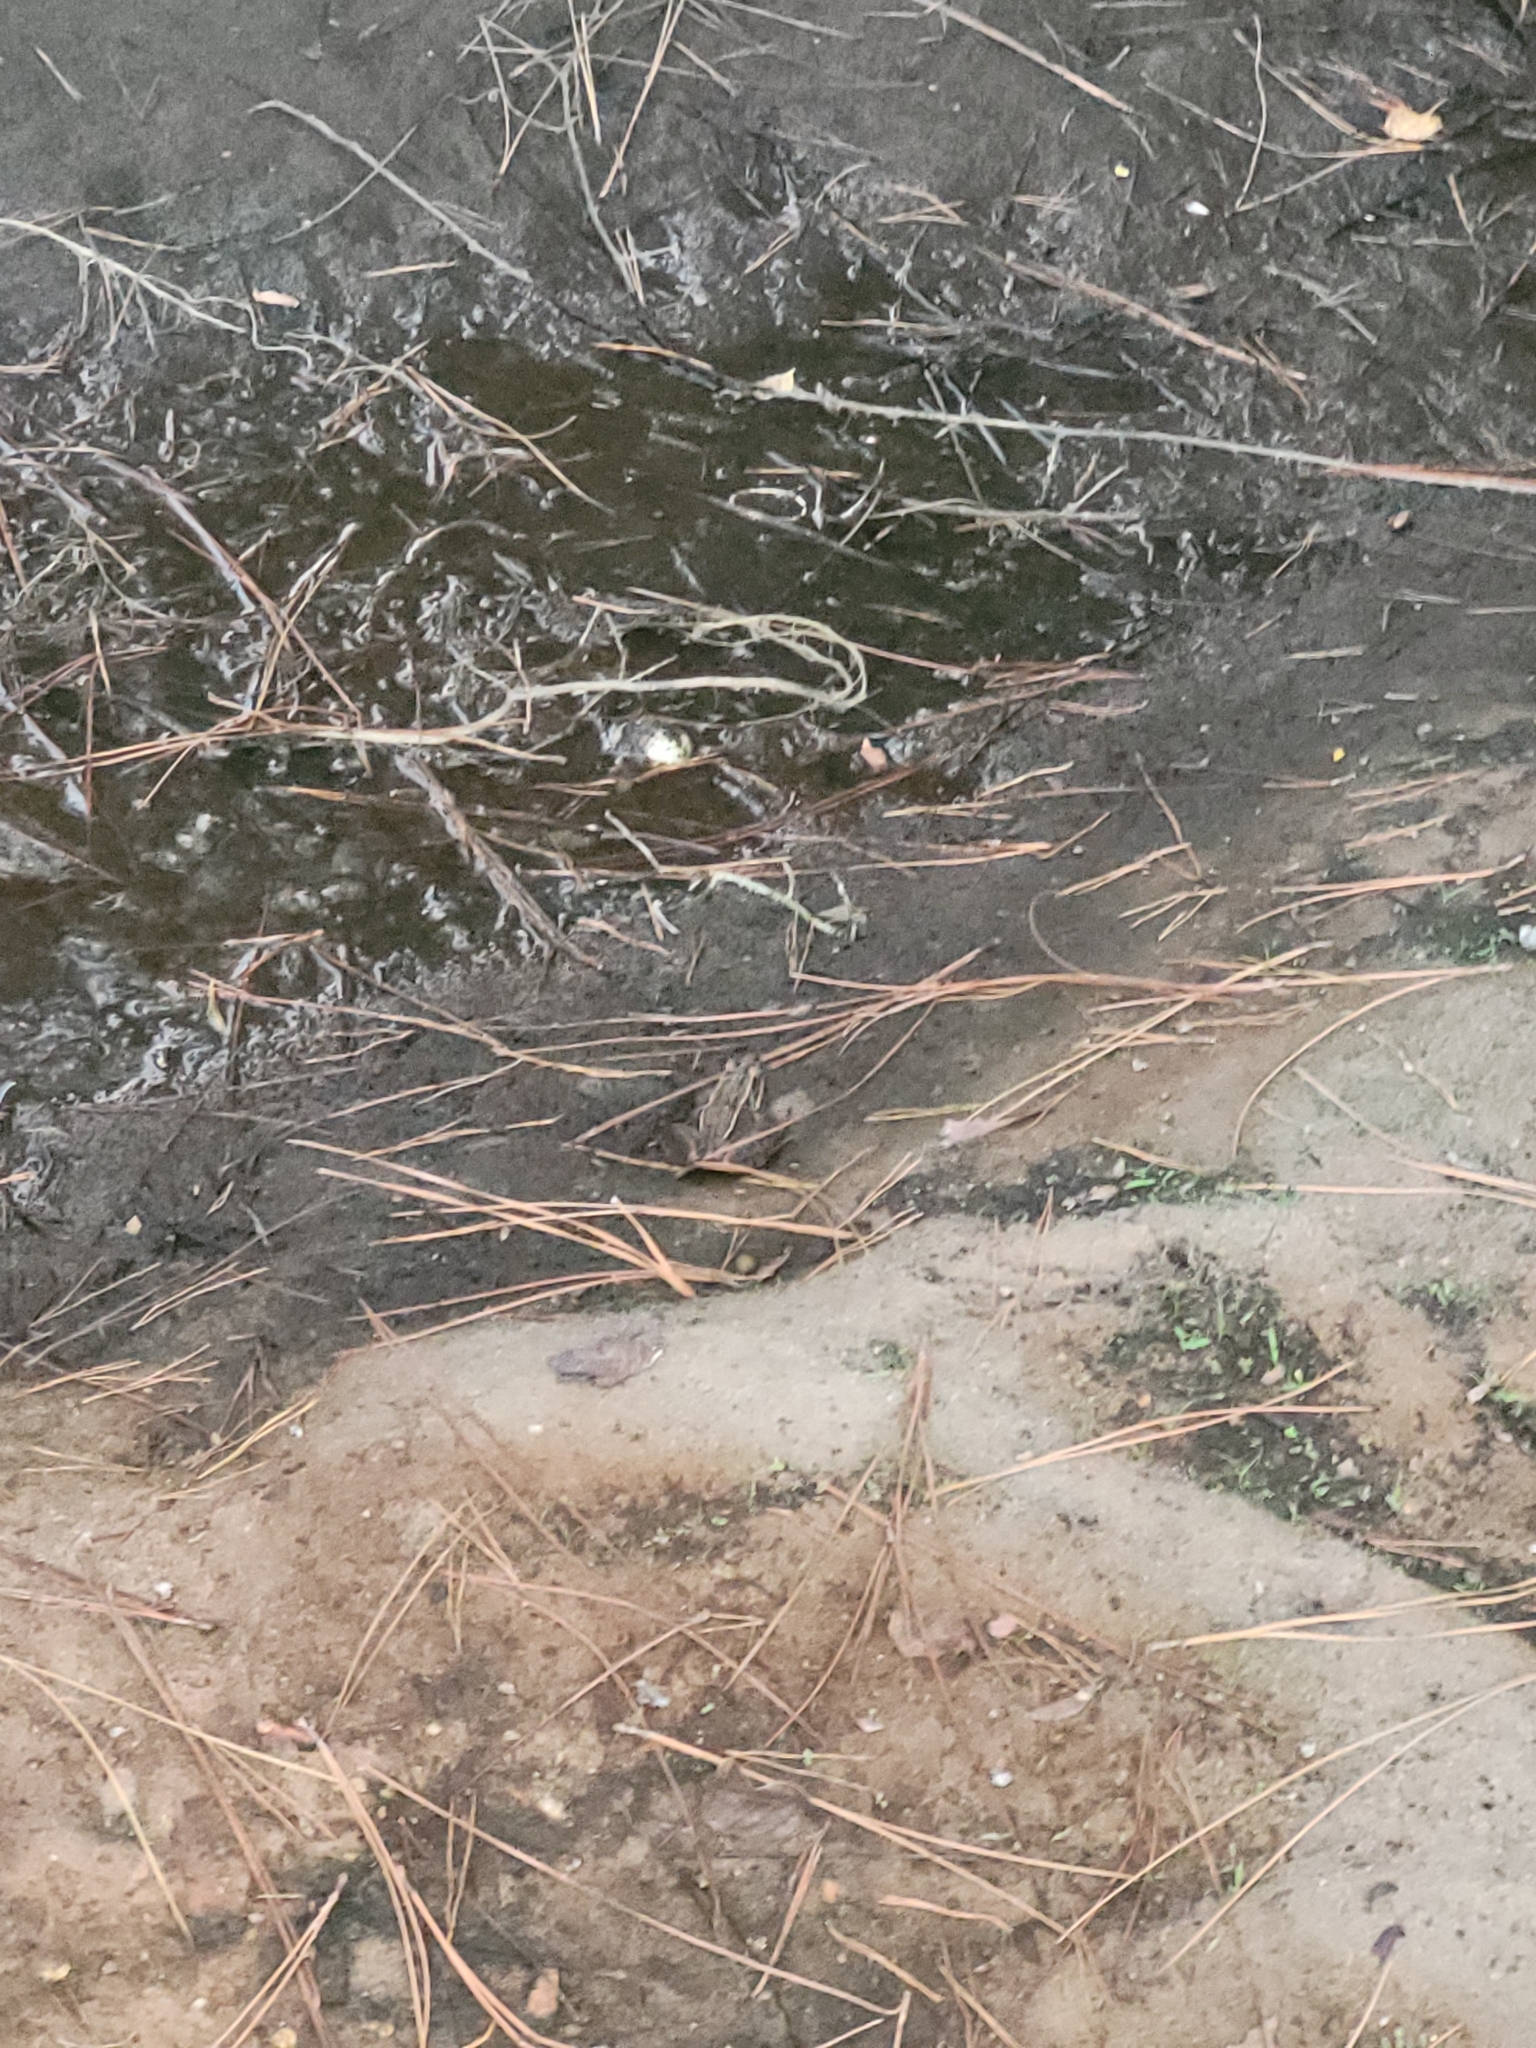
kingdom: Animalia
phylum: Chordata
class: Amphibia
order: Anura
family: Ranidae
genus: Lithobates
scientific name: Lithobates sphenocephalus
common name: Southern leopard frog
